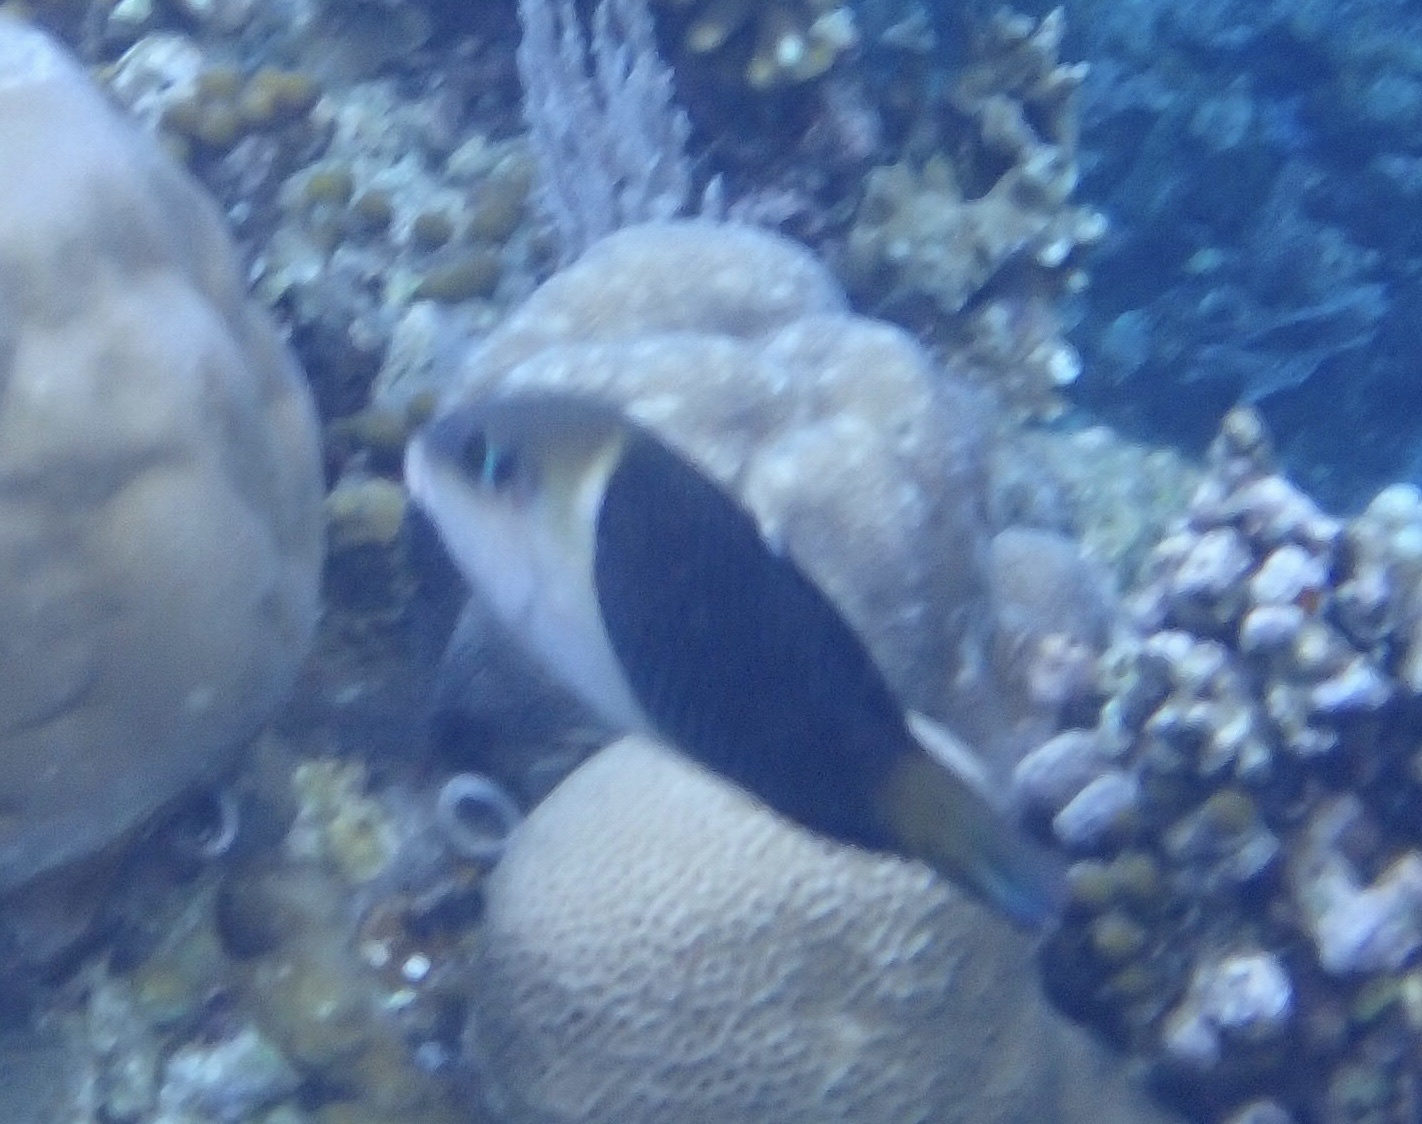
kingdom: Animalia
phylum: Chordata
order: Perciformes
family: Labridae
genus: Hemigymnus
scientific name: Hemigymnus melapterus
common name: Blackeye thicklip
